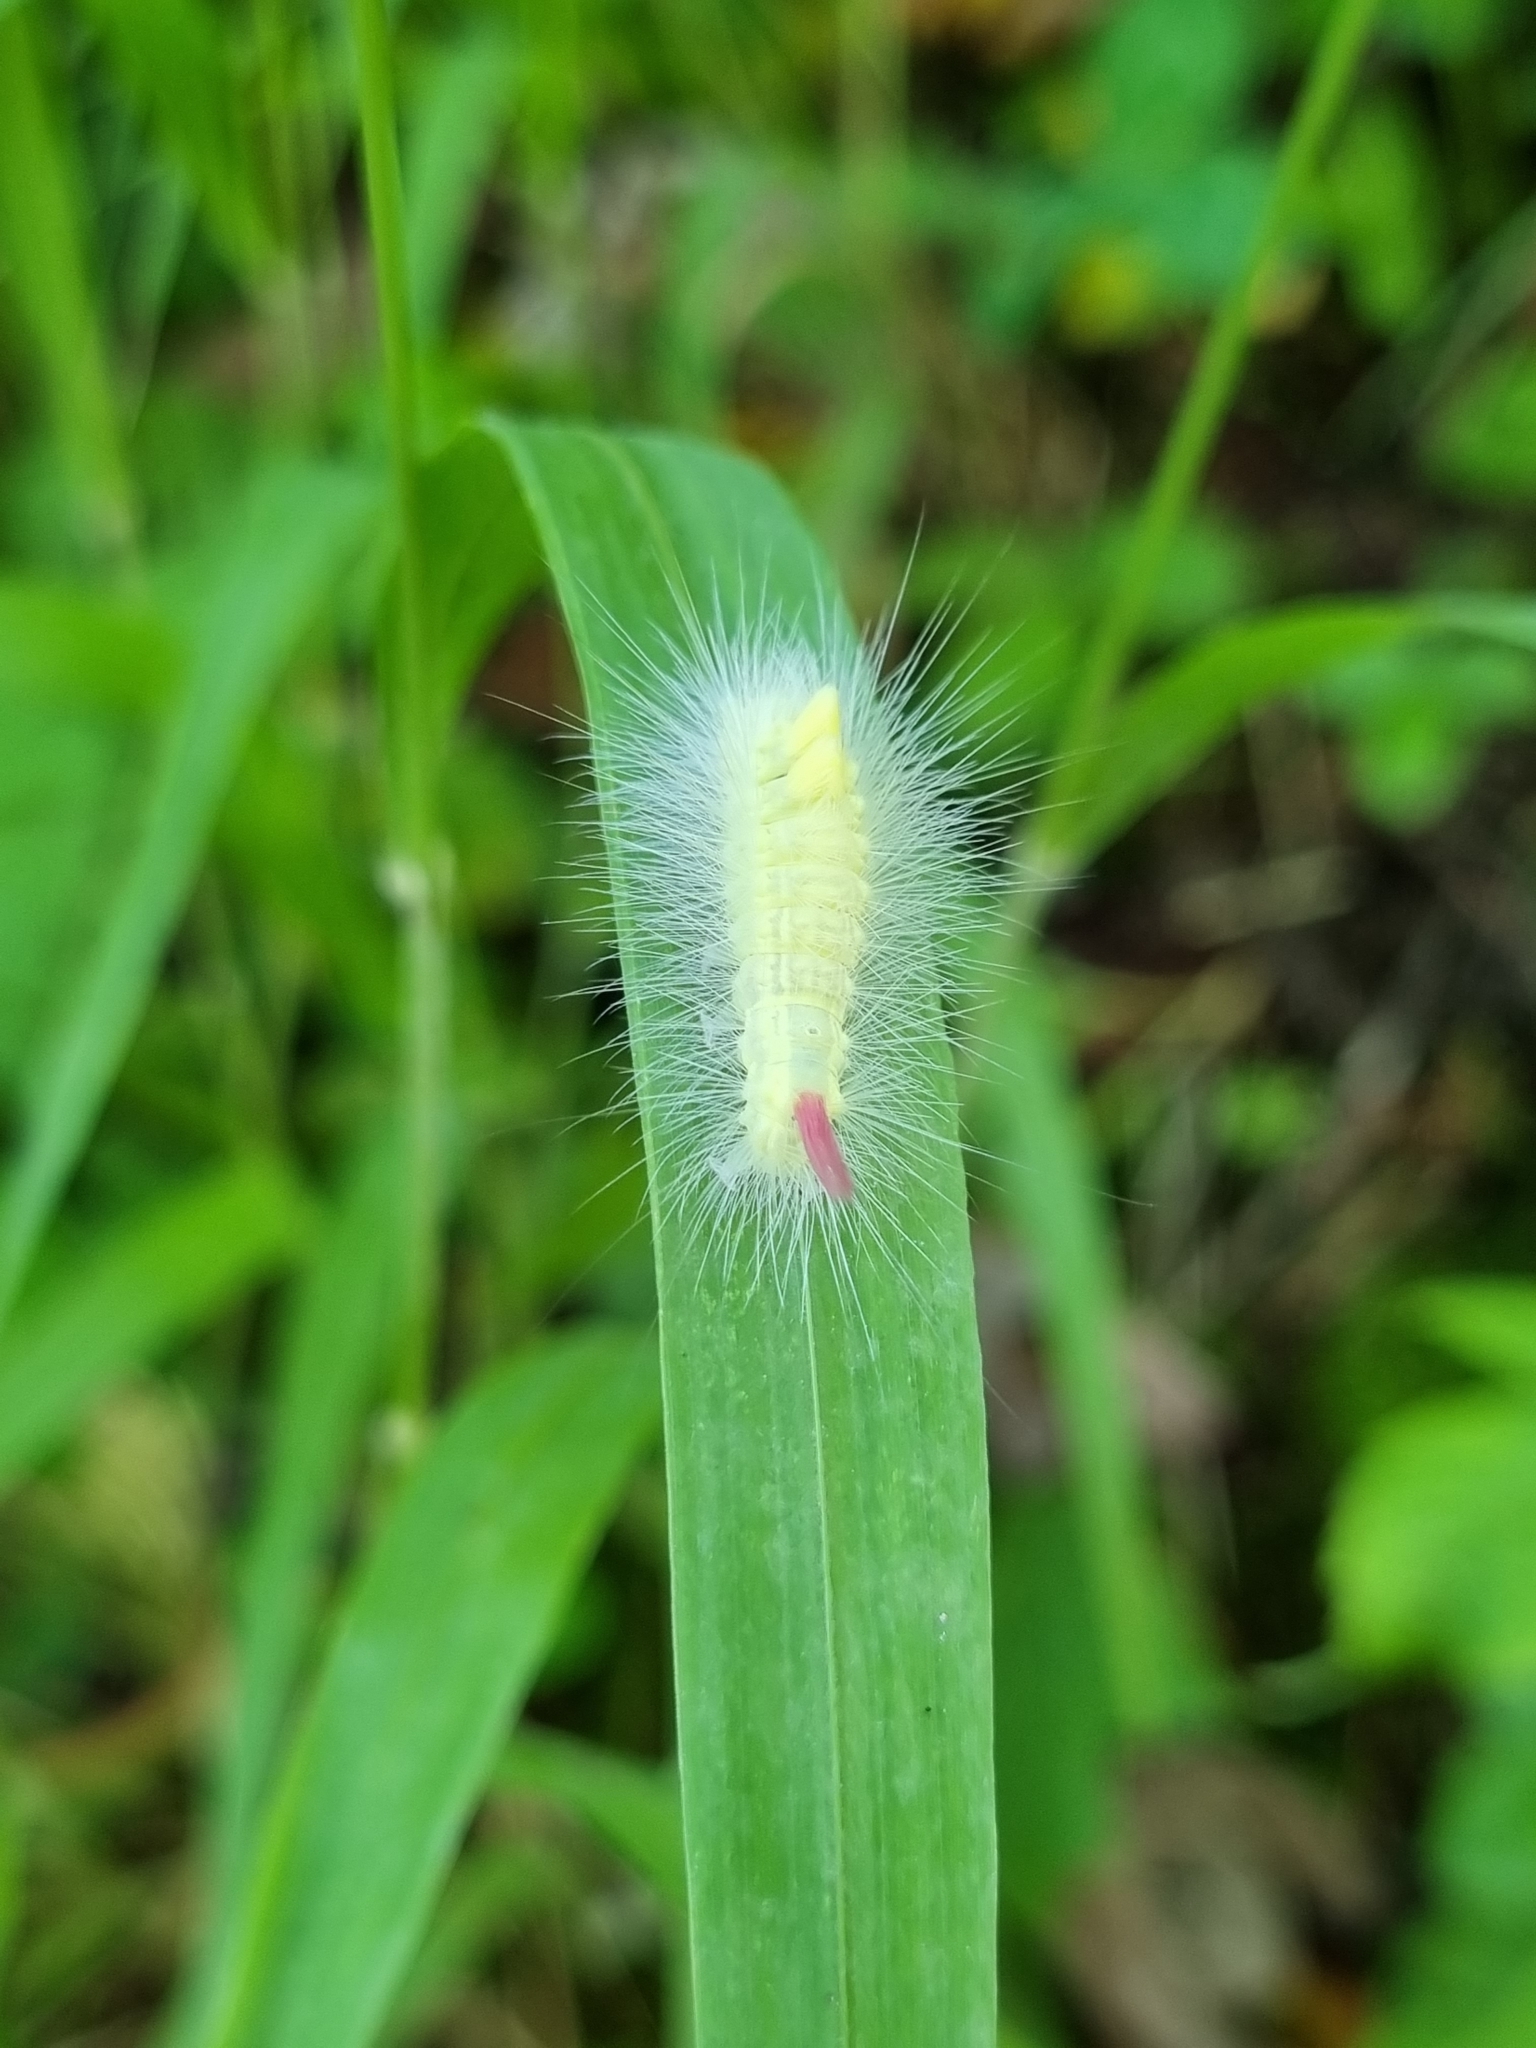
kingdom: Animalia
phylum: Arthropoda
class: Insecta
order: Lepidoptera
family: Erebidae
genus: Calliteara
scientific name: Calliteara pudibunda
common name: Pale tussock
